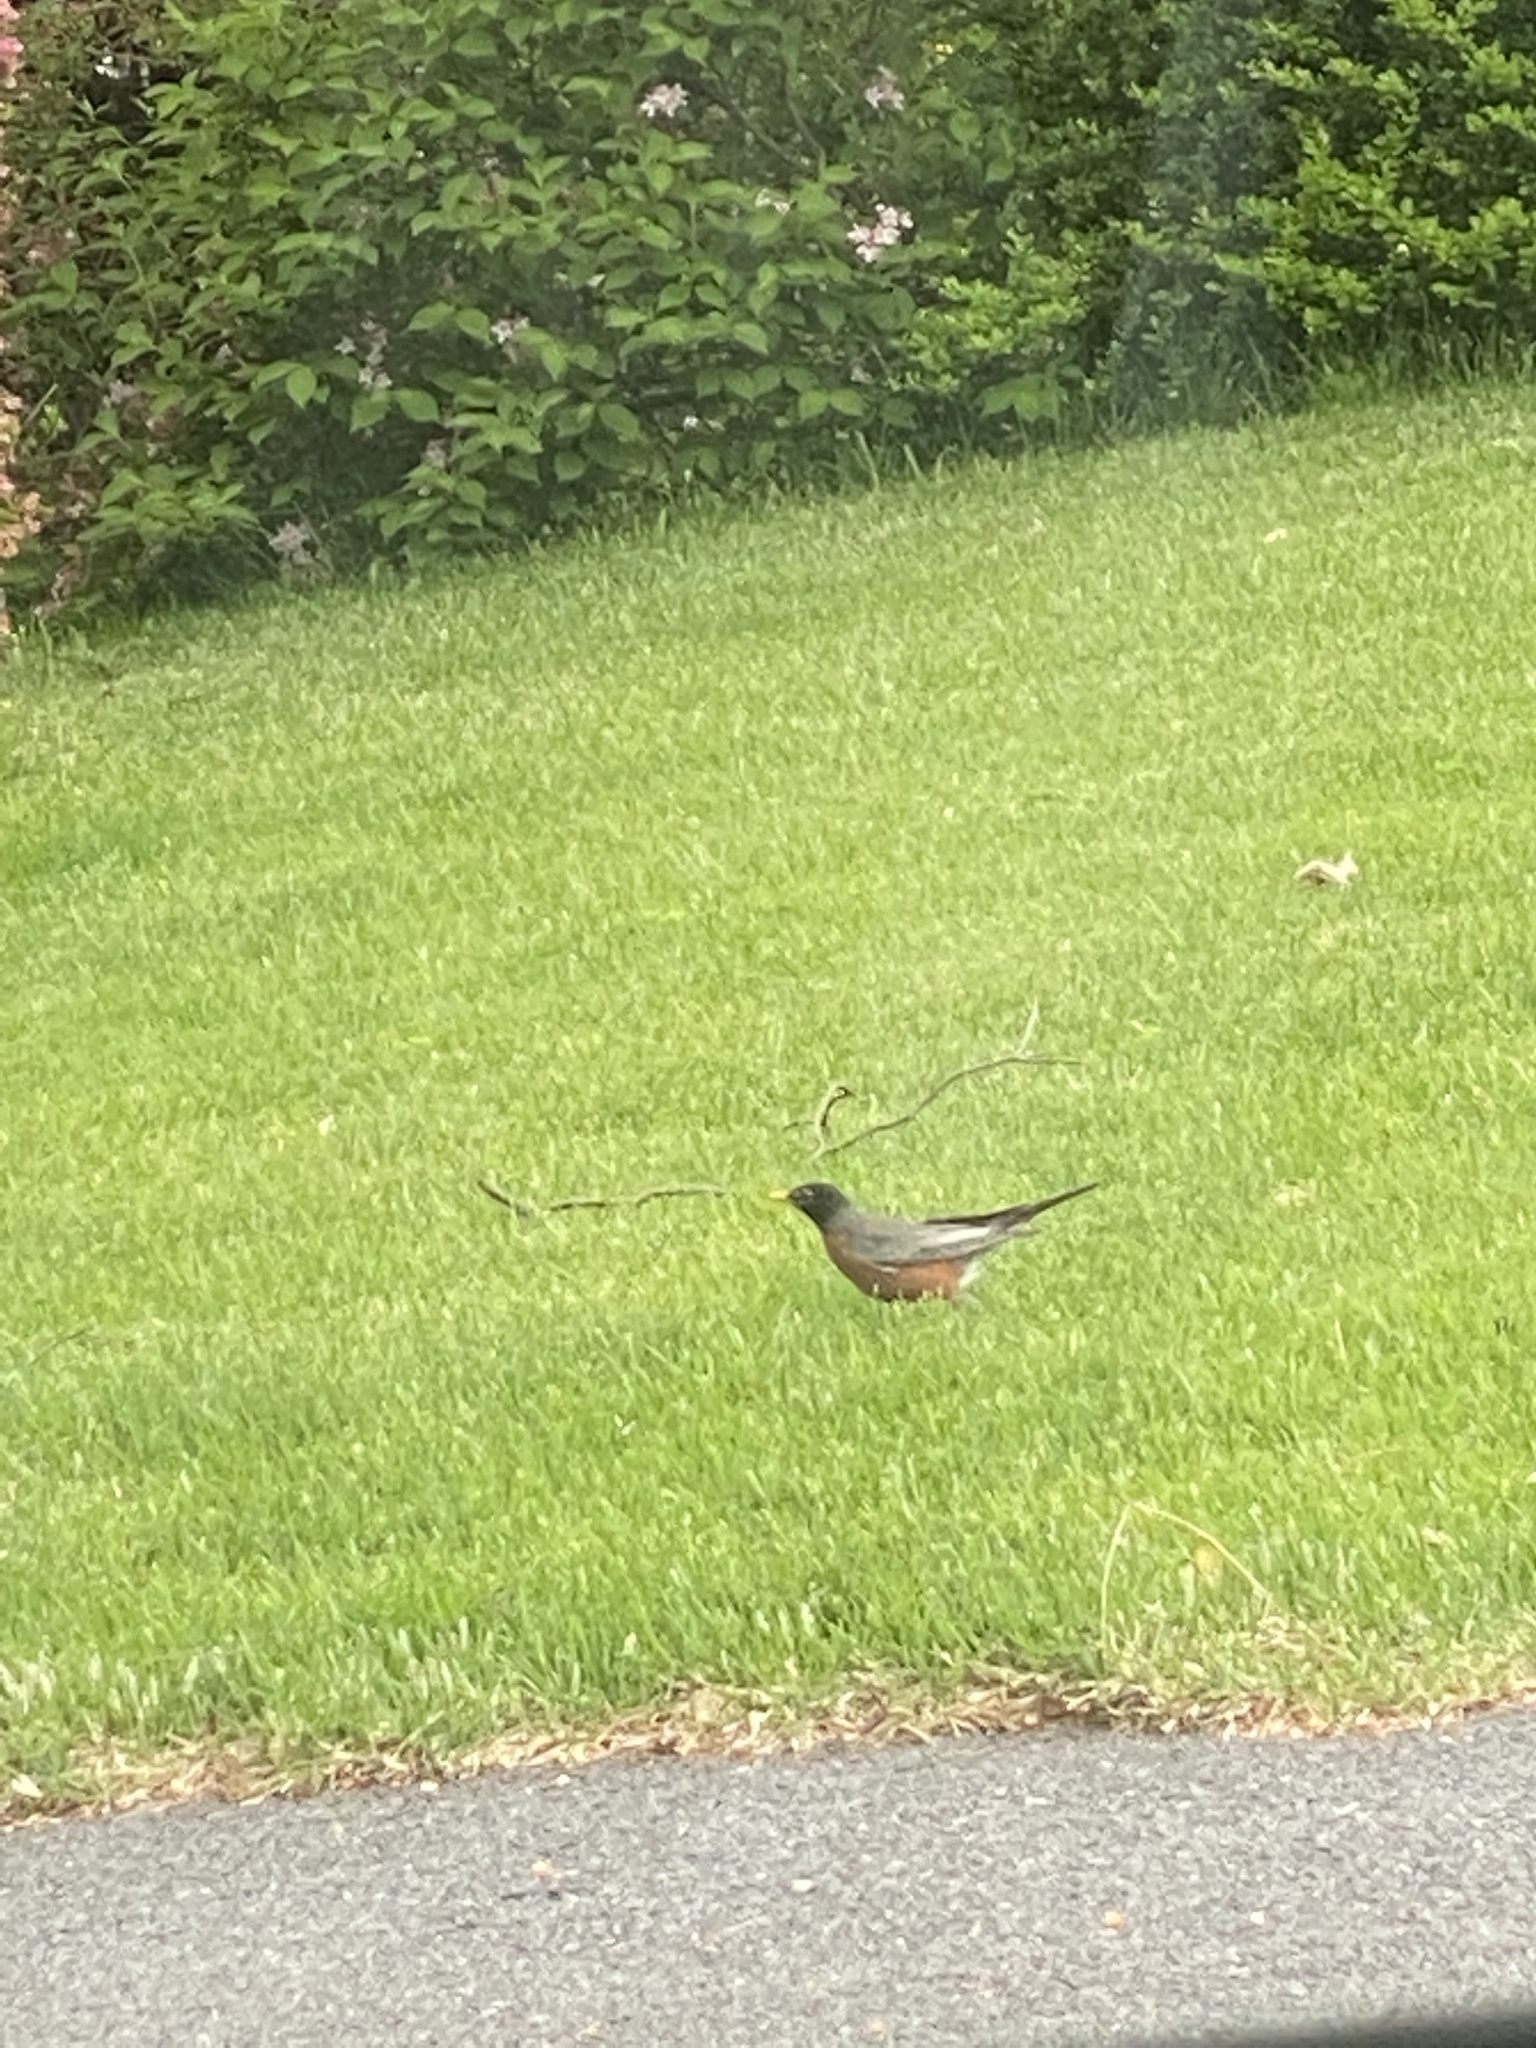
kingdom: Animalia
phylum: Chordata
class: Aves
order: Passeriformes
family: Turdidae
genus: Turdus
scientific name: Turdus migratorius
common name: American robin
